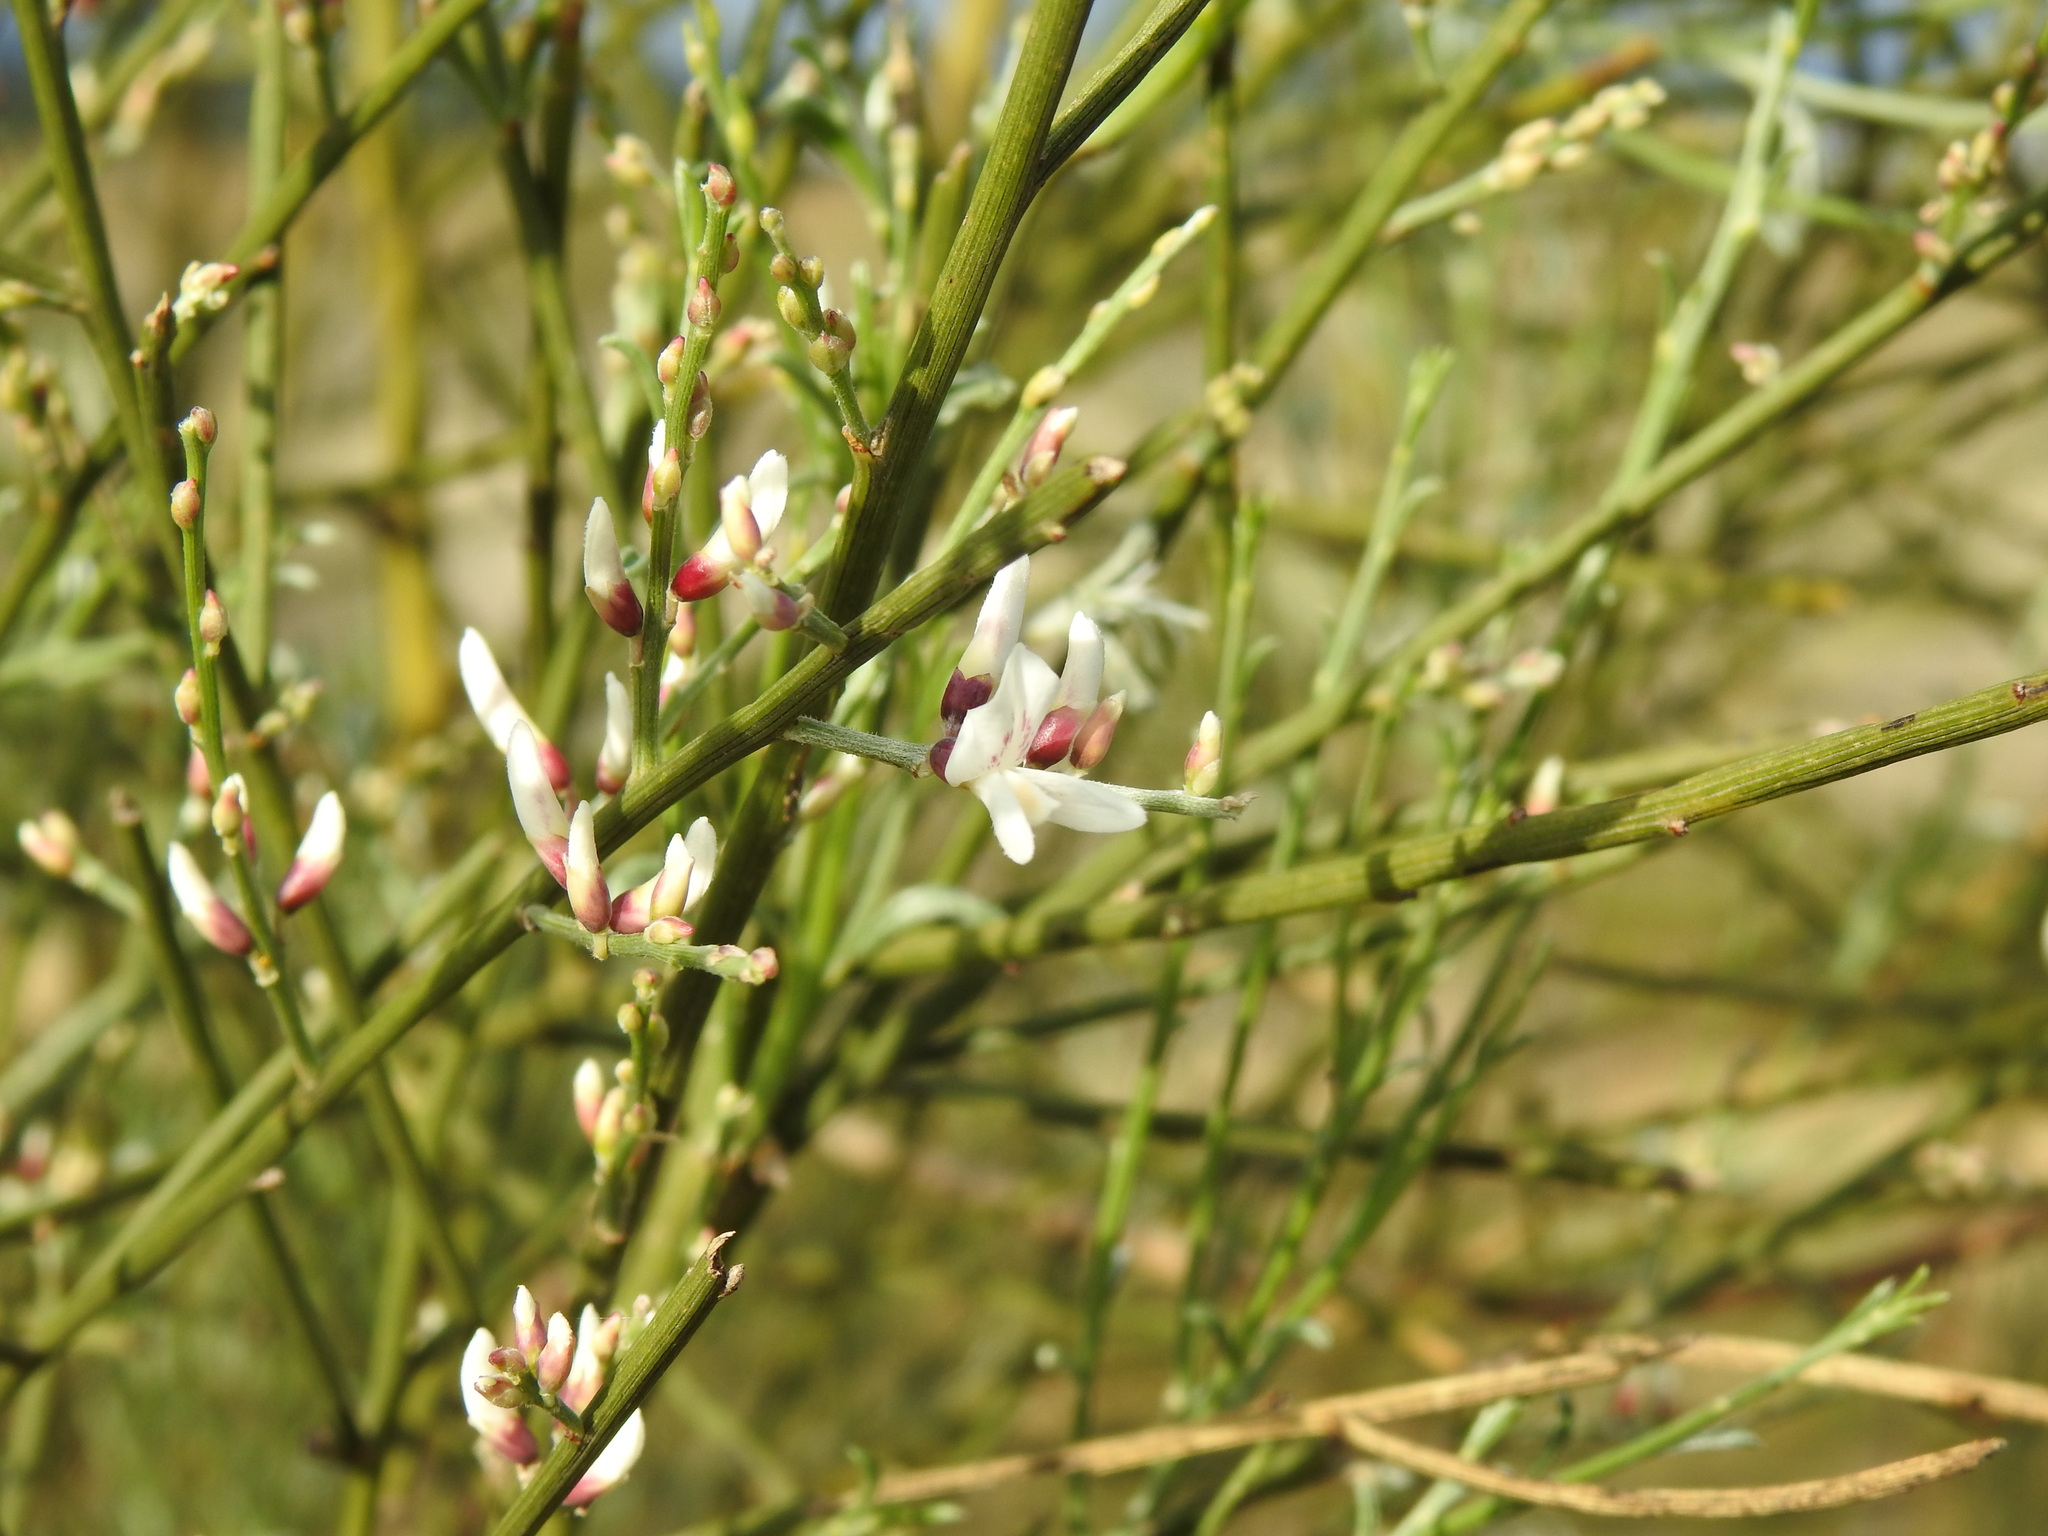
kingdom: Plantae
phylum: Tracheophyta
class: Magnoliopsida
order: Fabales
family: Fabaceae
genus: Retama
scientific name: Retama monosperma
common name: Bridal broom
